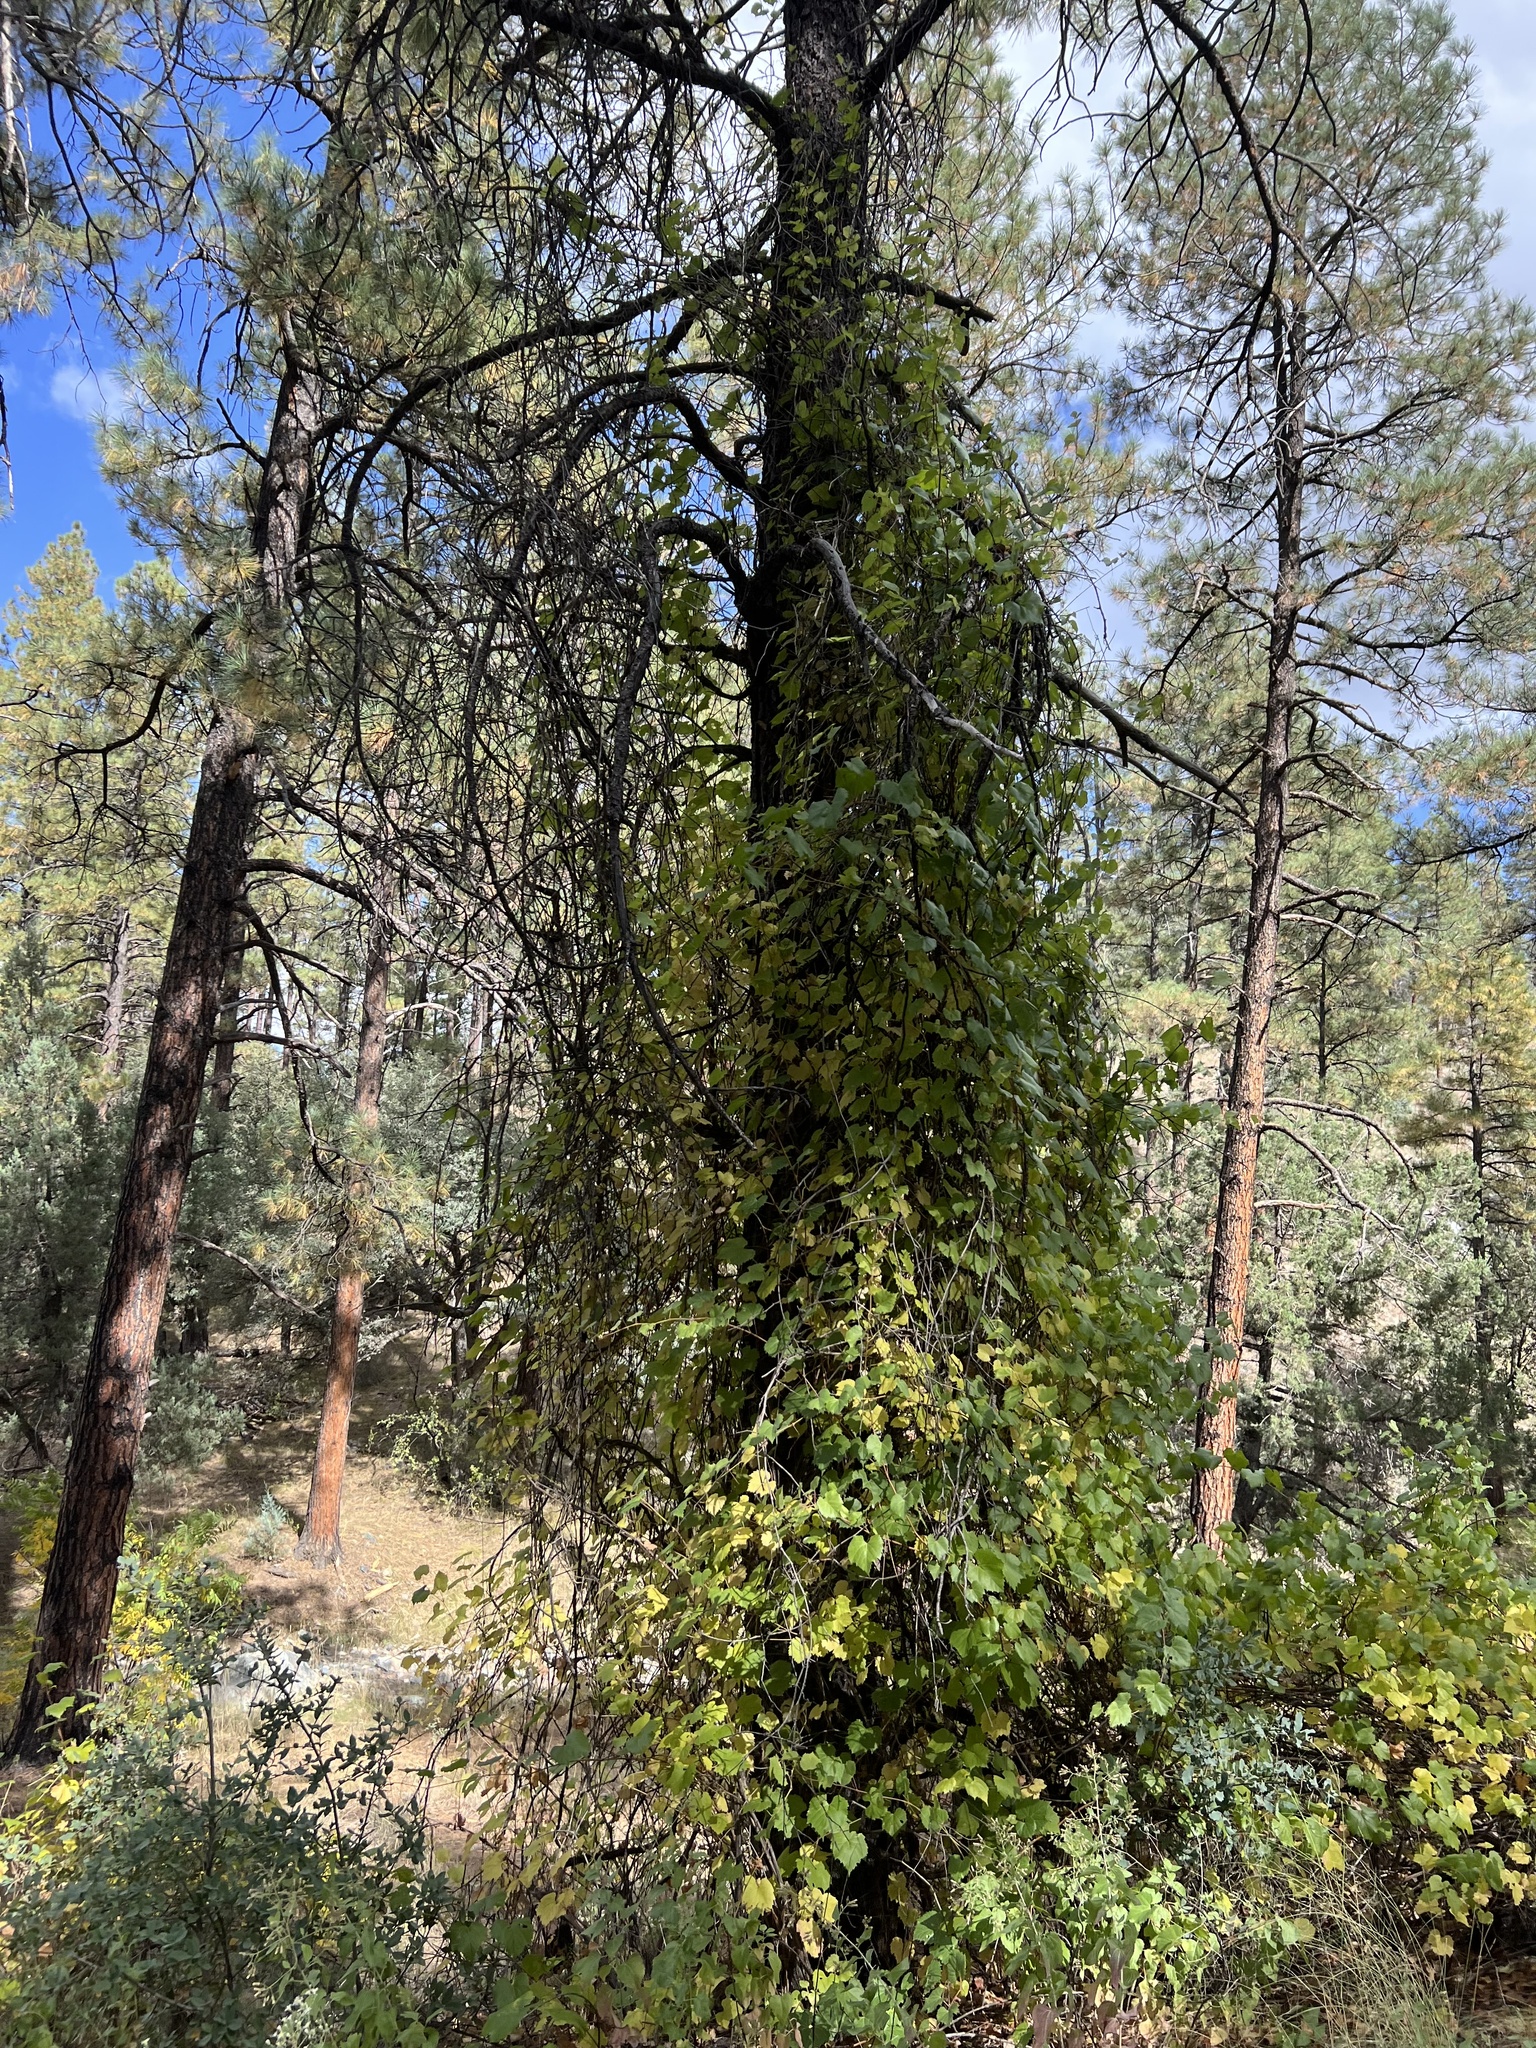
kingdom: Plantae
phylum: Tracheophyta
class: Magnoliopsida
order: Vitales
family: Vitaceae
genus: Vitis
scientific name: Vitis arizonica
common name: Canyon grape
